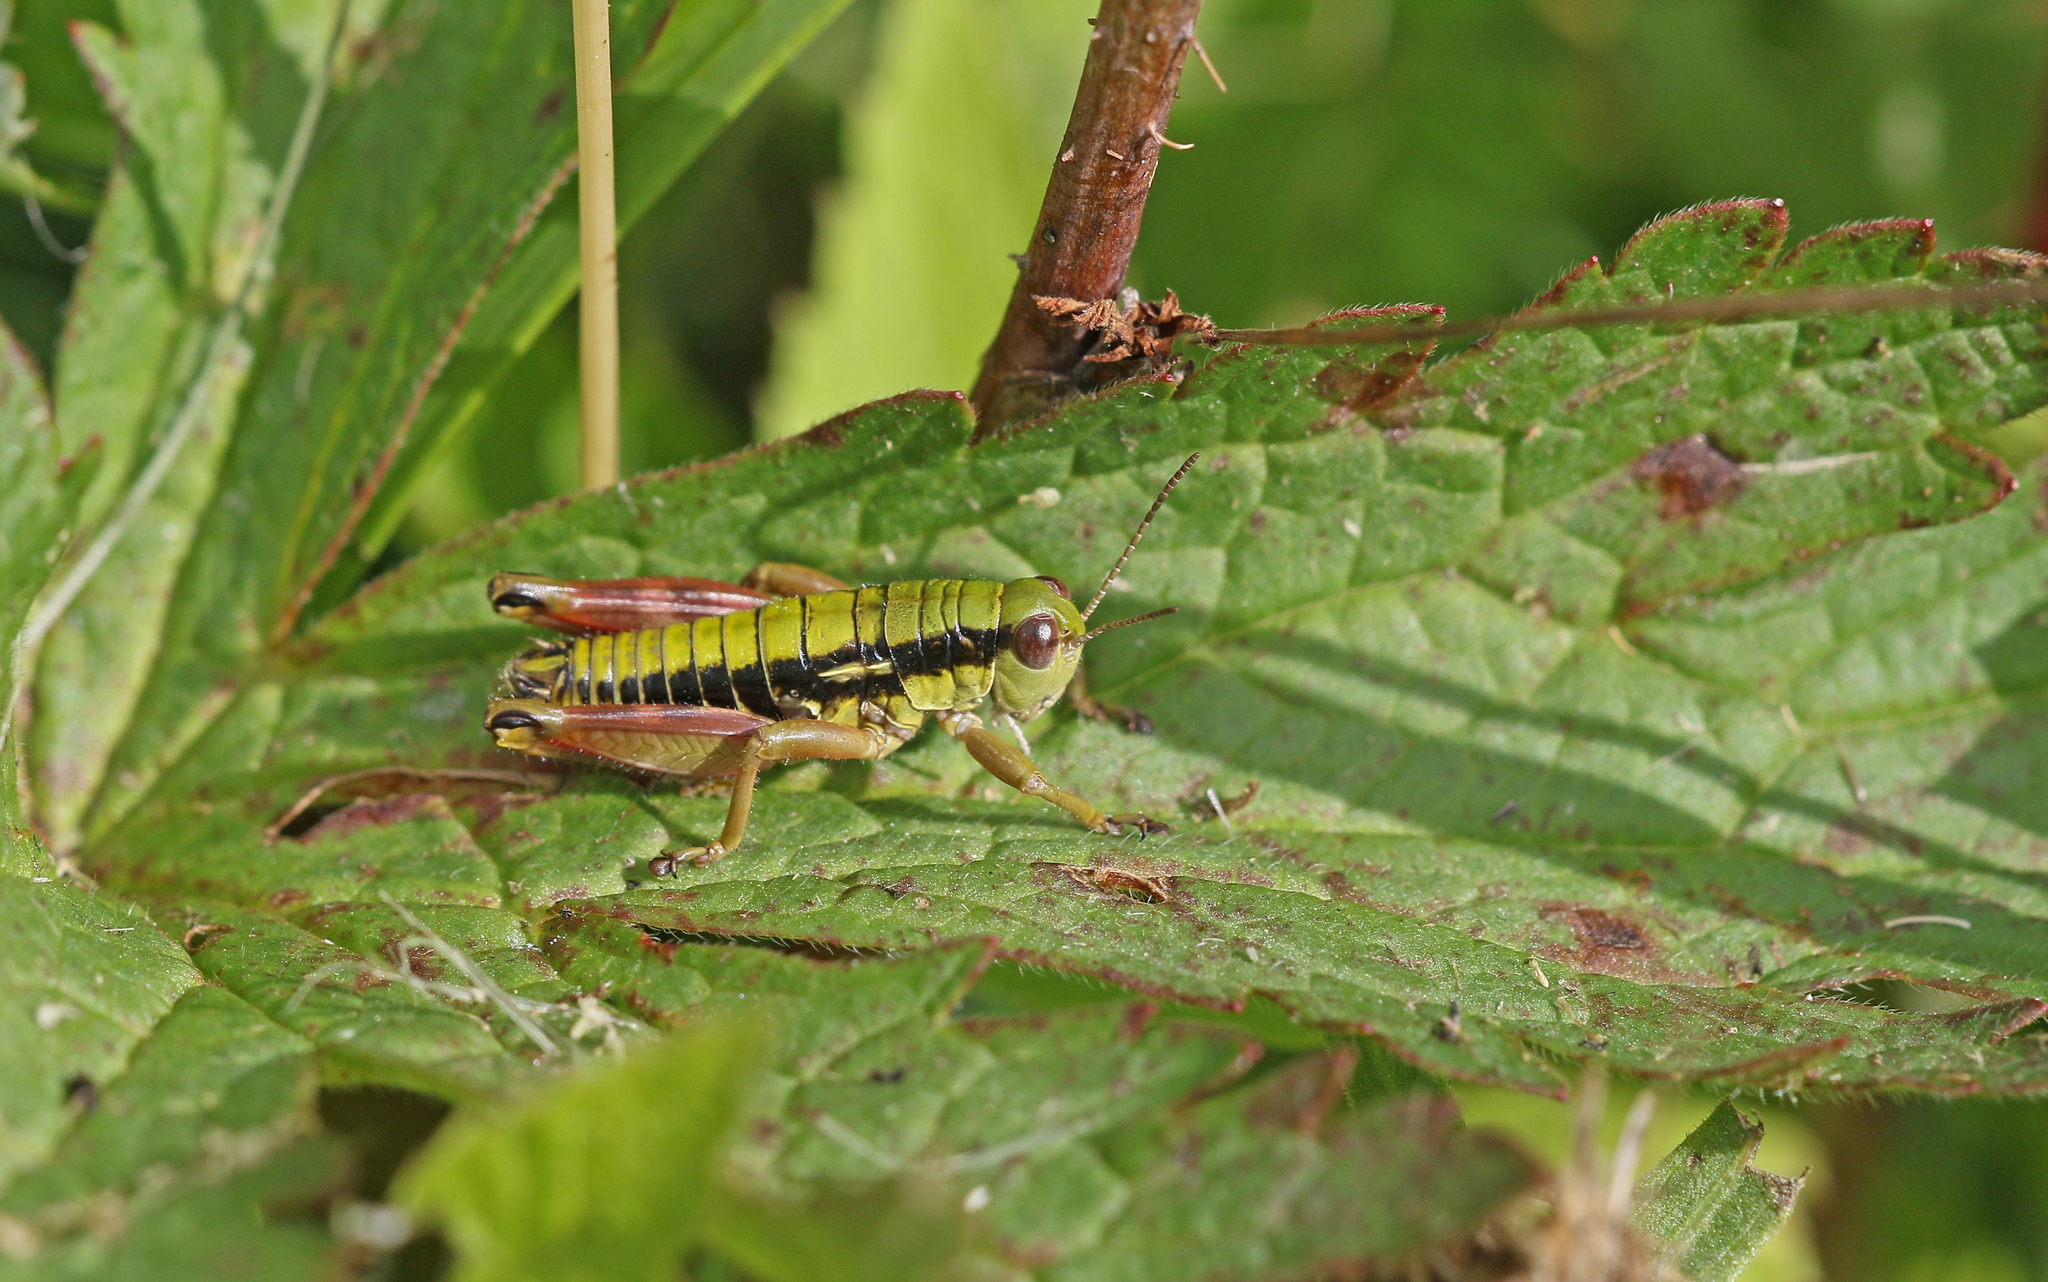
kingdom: Animalia
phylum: Arthropoda
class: Insecta
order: Orthoptera
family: Acrididae
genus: Epipodisma
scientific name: Epipodisma pedemontana
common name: Piedmont mountain grasshopper
